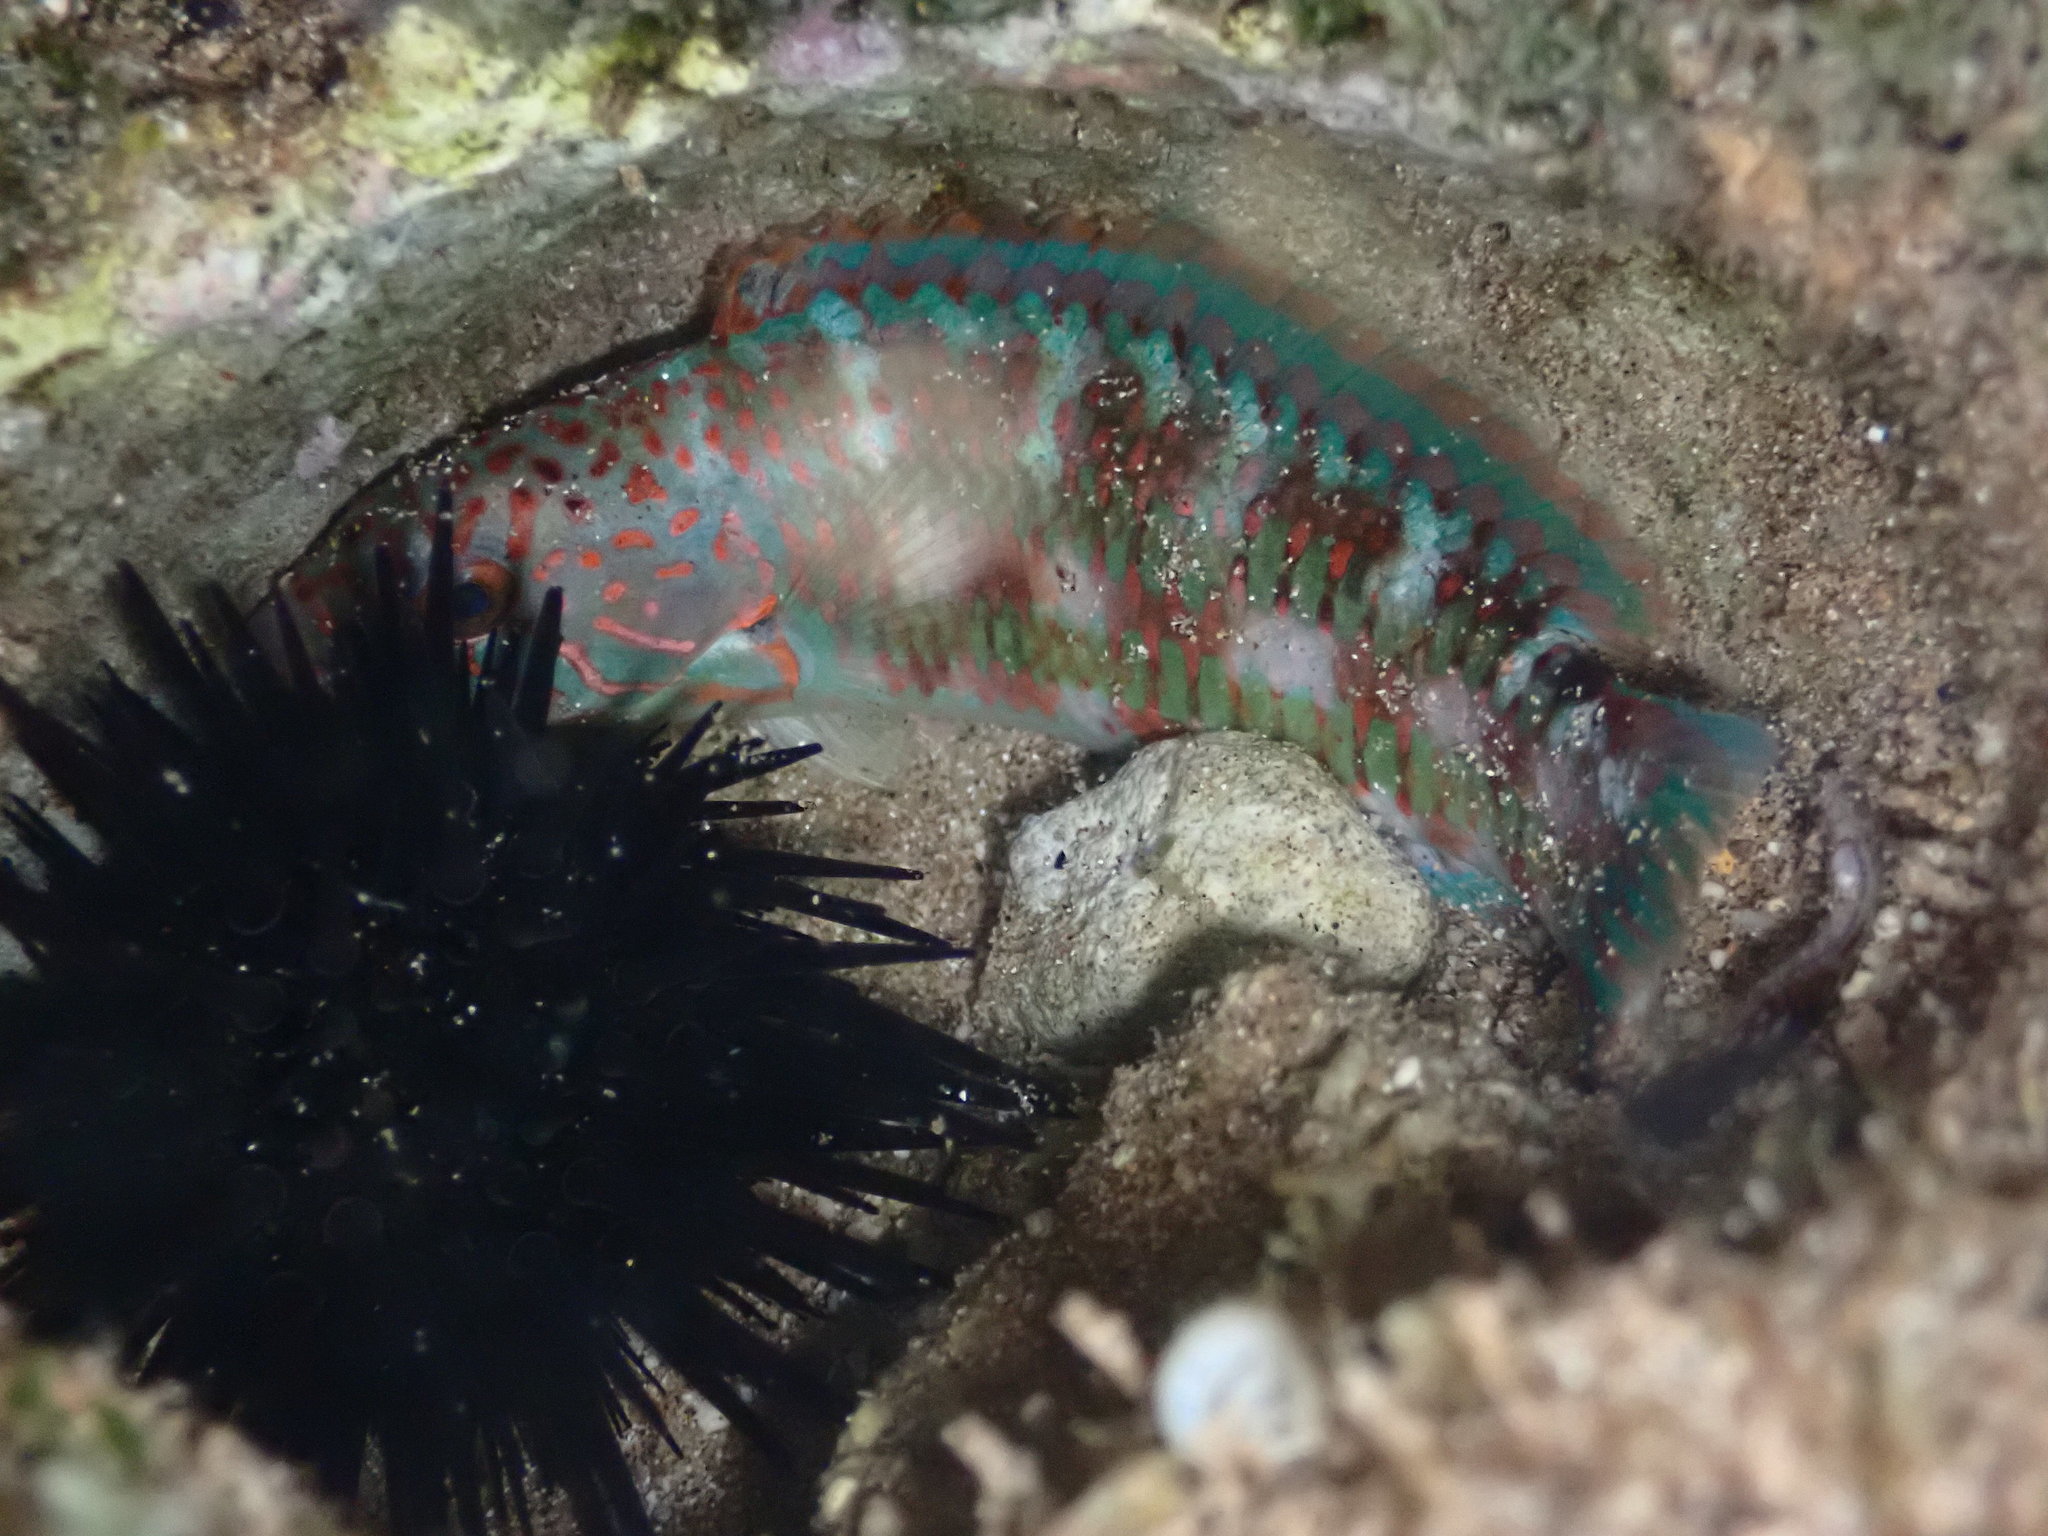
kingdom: Animalia
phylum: Chordata
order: Perciformes
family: Labridae
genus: Thalassoma
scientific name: Thalassoma trilobatum
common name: Christmas wrasse
